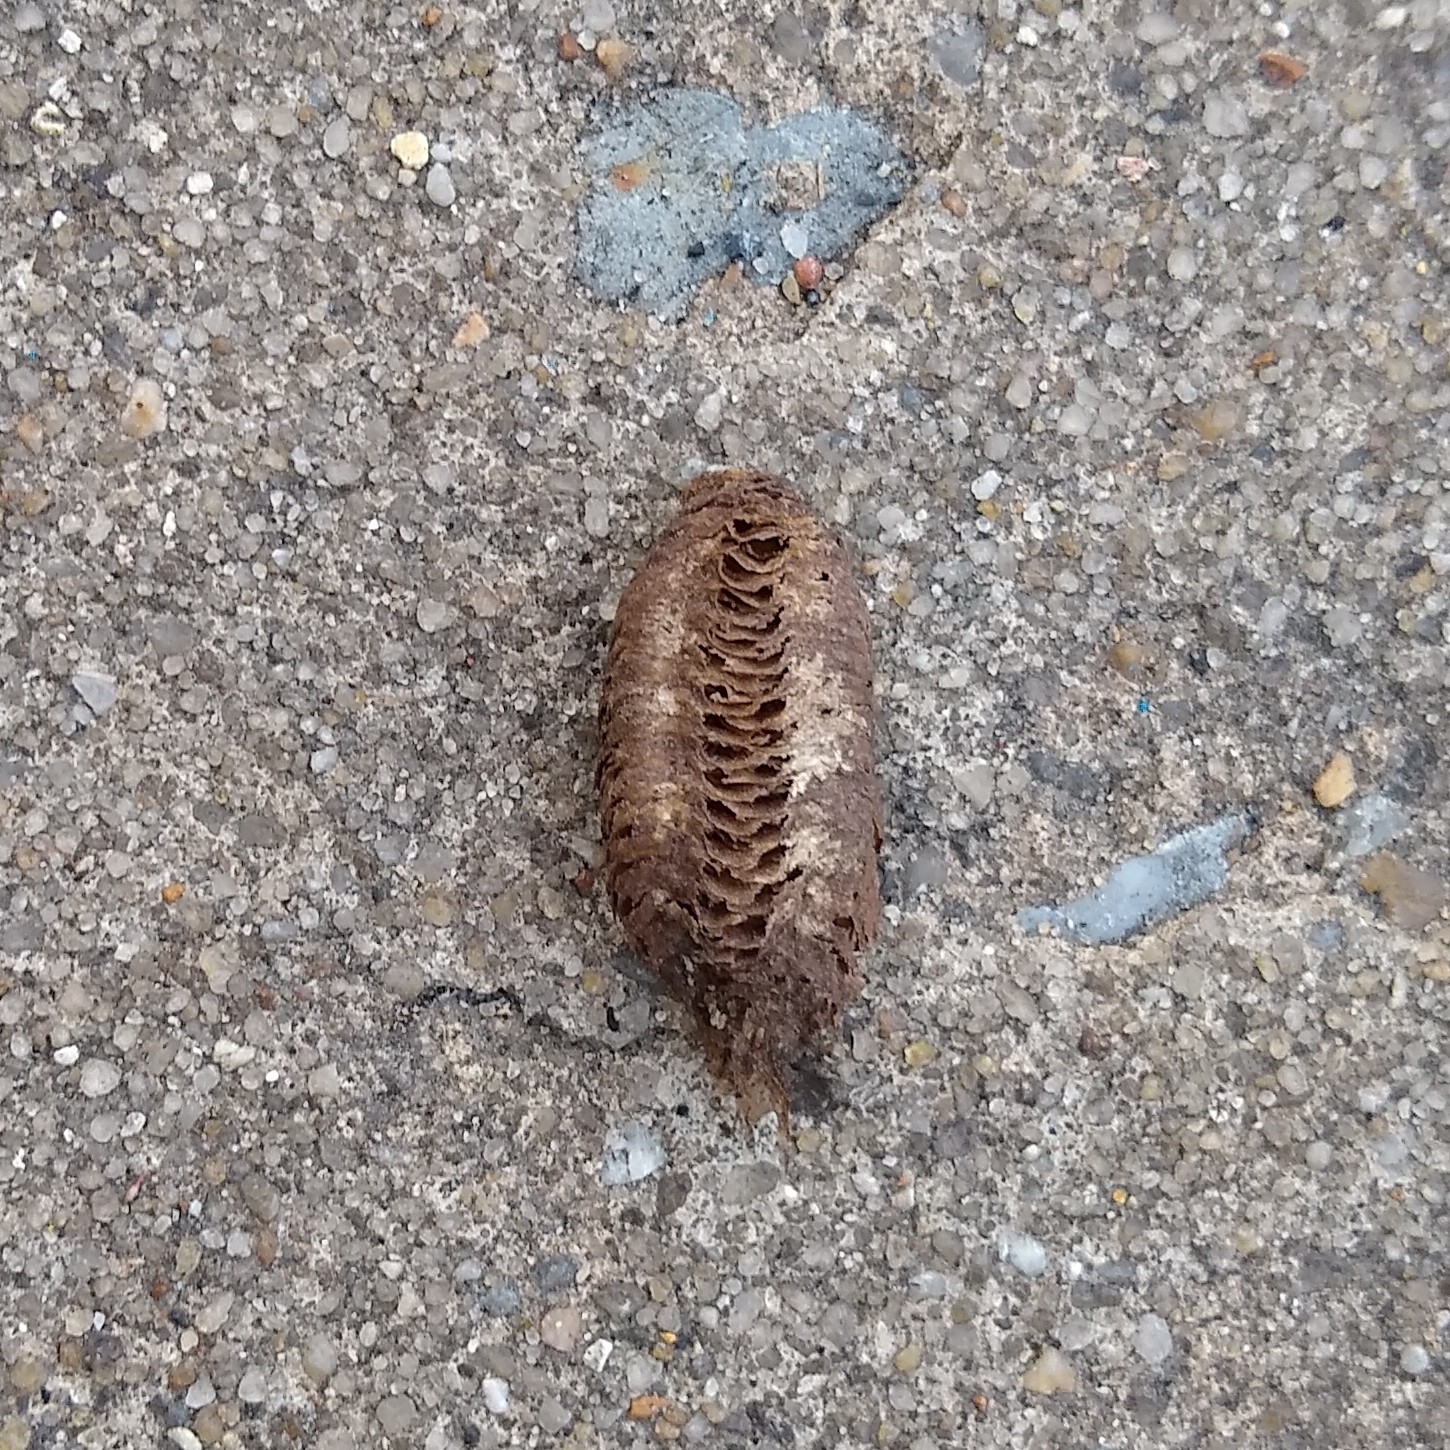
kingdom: Animalia
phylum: Arthropoda
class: Insecta
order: Mantodea
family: Mantidae
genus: Stagmomantis
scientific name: Stagmomantis carolina
